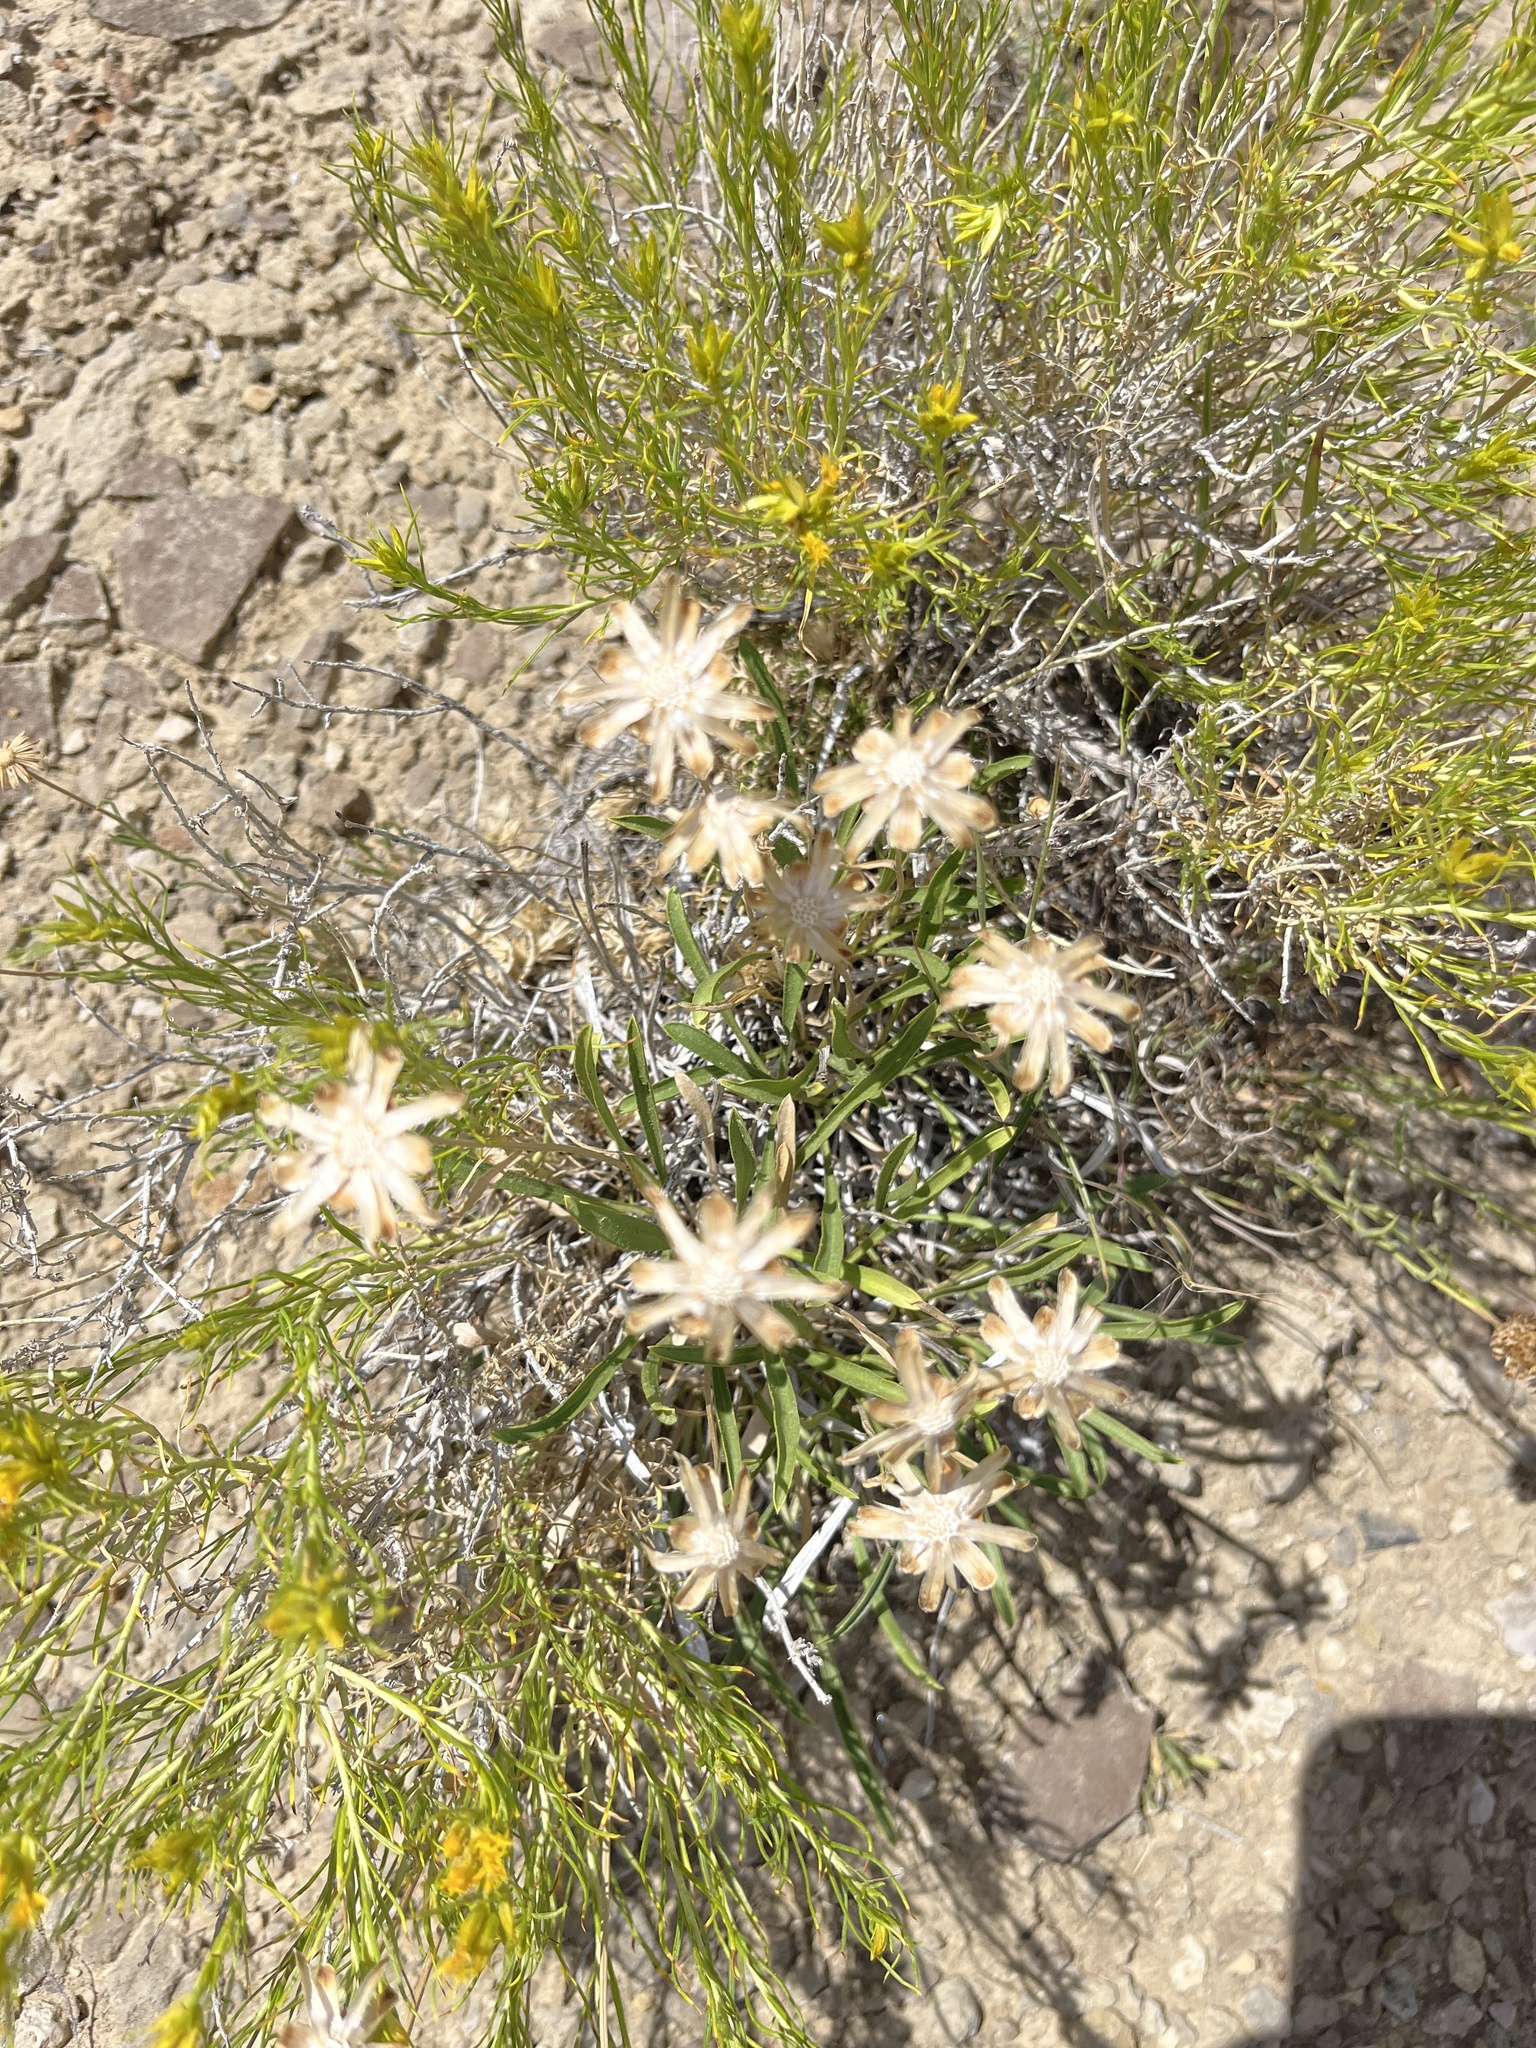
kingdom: Plantae
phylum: Tracheophyta
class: Magnoliopsida
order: Asterales
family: Asteraceae
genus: Stenotus
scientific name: Stenotus armerioides
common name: Thrifty goldenweed
